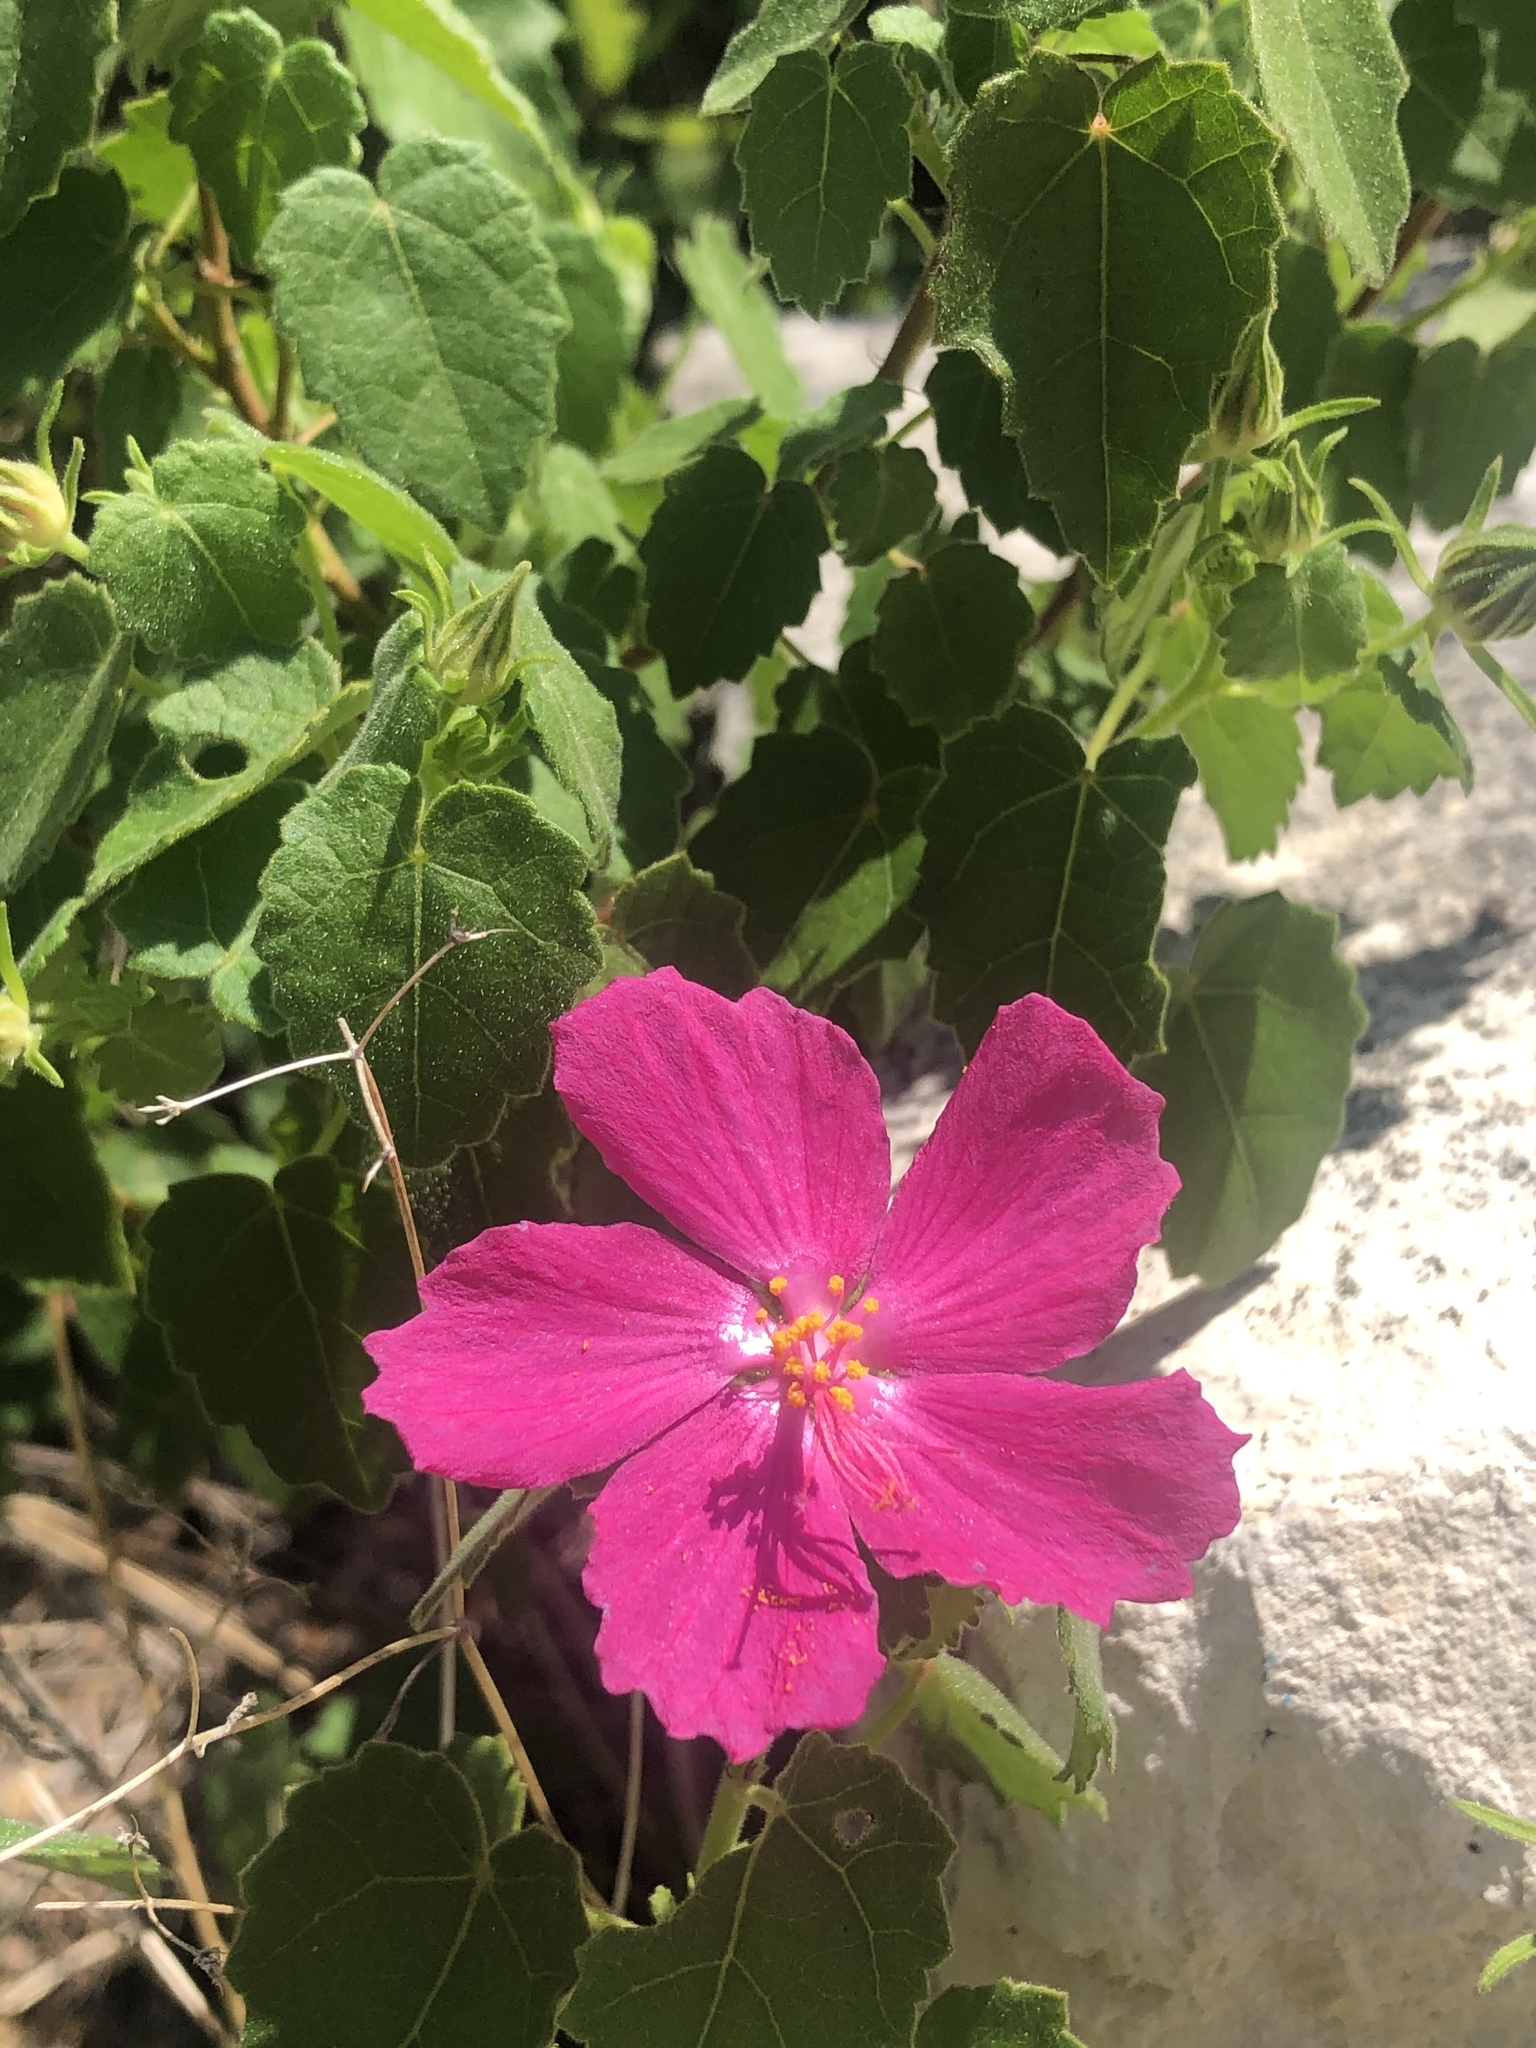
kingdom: Plantae
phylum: Tracheophyta
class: Magnoliopsida
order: Malvales
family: Malvaceae
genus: Pavonia
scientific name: Pavonia lasiopetala
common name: Texas swamp-mallow
